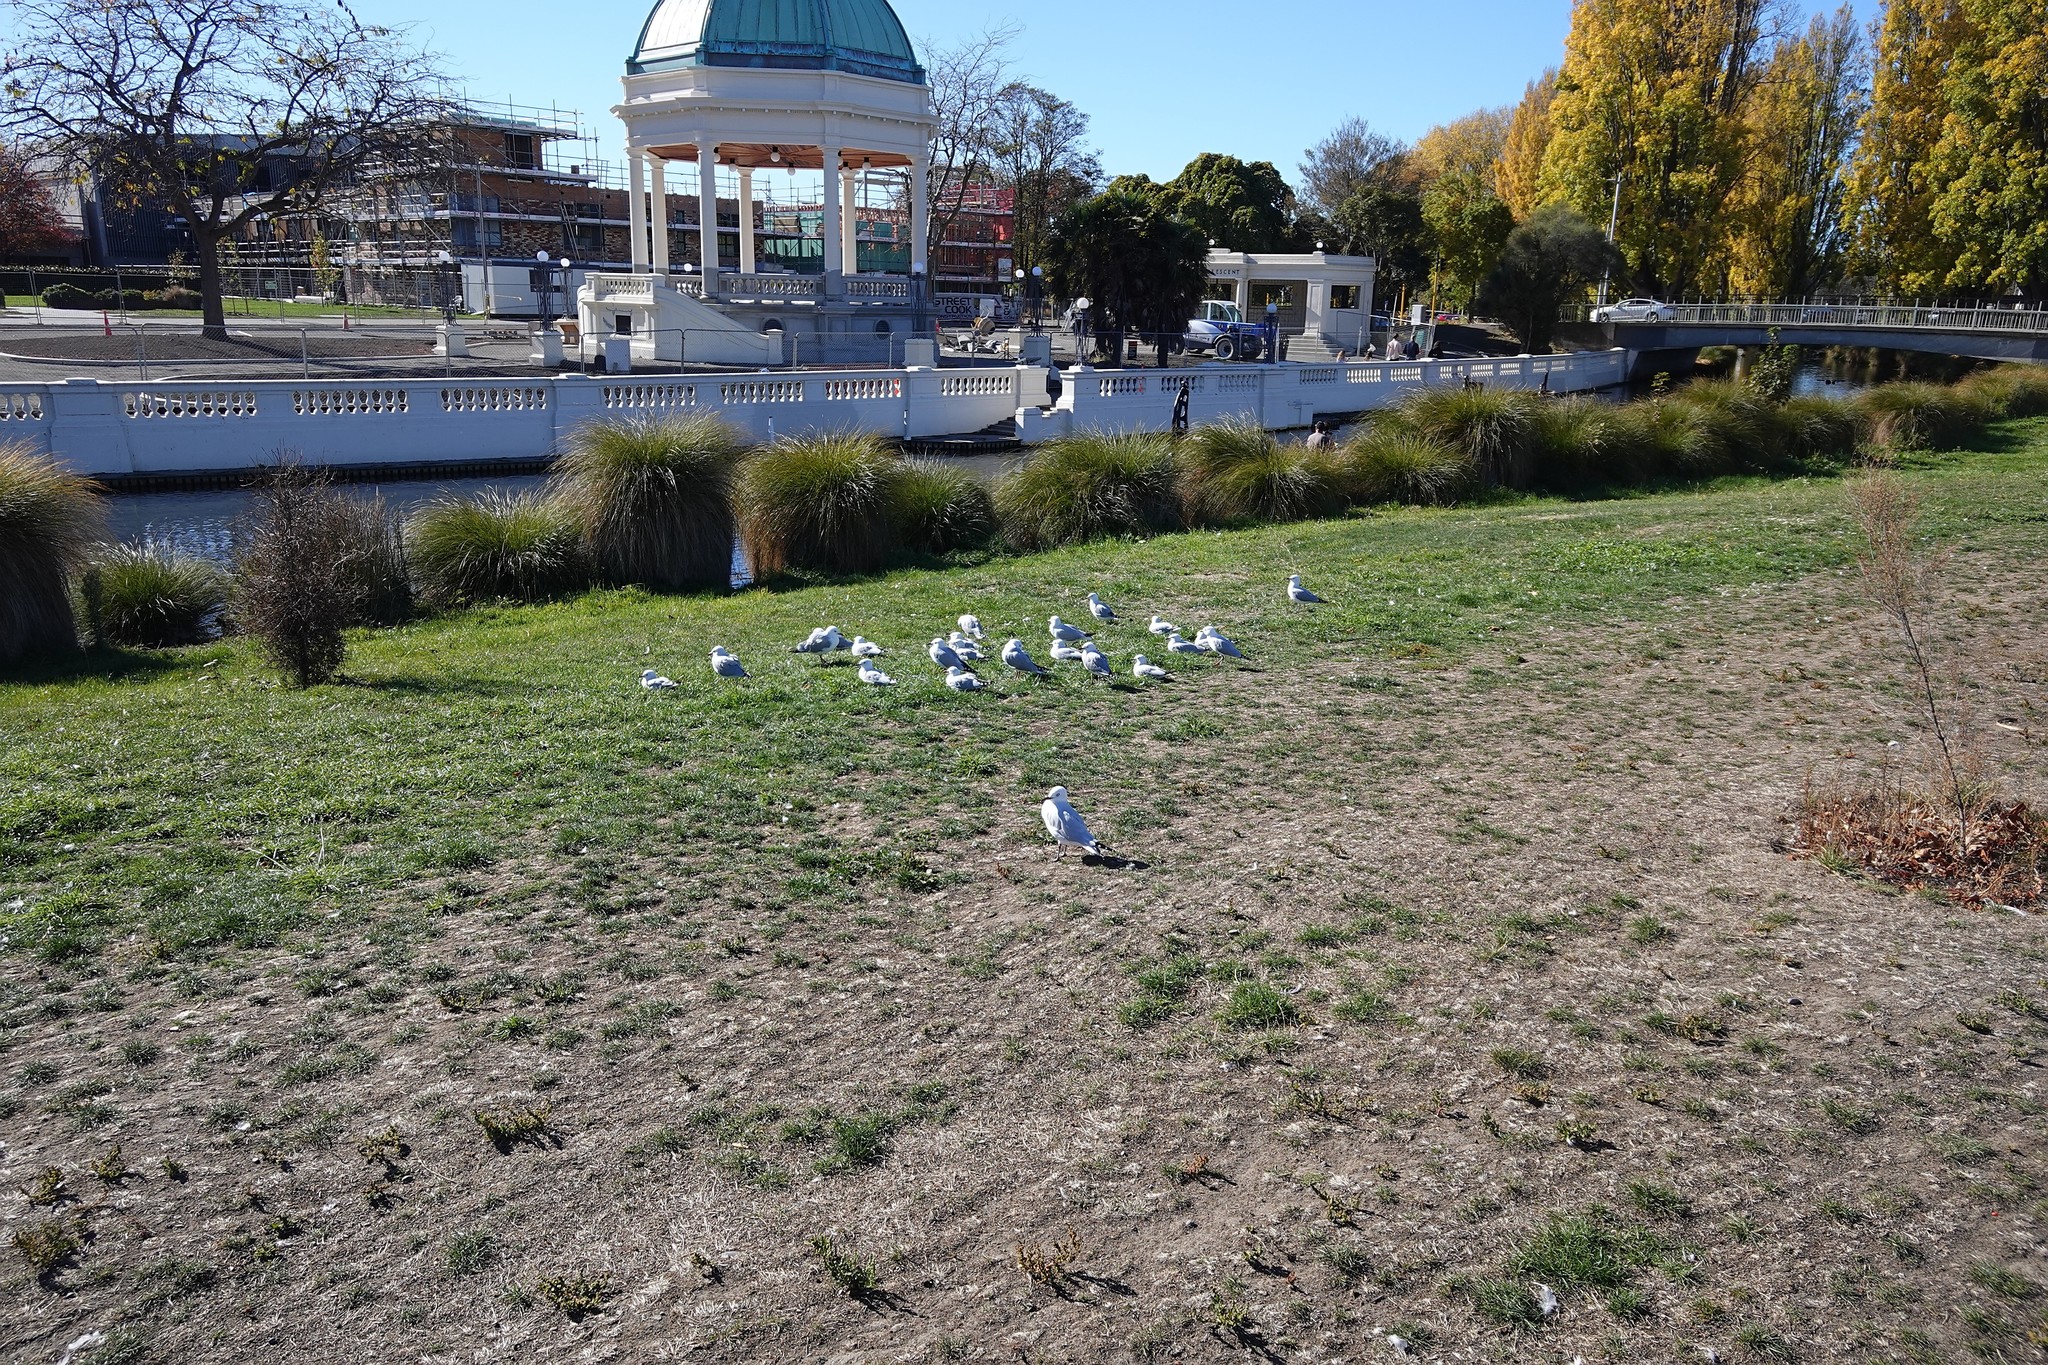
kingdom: Animalia
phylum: Chordata
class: Aves
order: Charadriiformes
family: Laridae
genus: Chroicocephalus
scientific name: Chroicocephalus novaehollandiae
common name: Silver gull
